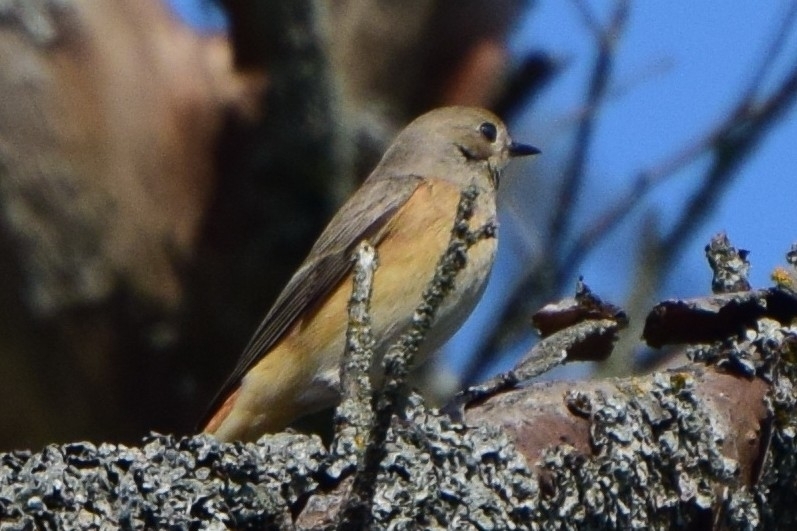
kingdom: Animalia
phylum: Chordata
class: Aves
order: Passeriformes
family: Muscicapidae
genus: Phoenicurus
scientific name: Phoenicurus phoenicurus
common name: Common redstart
